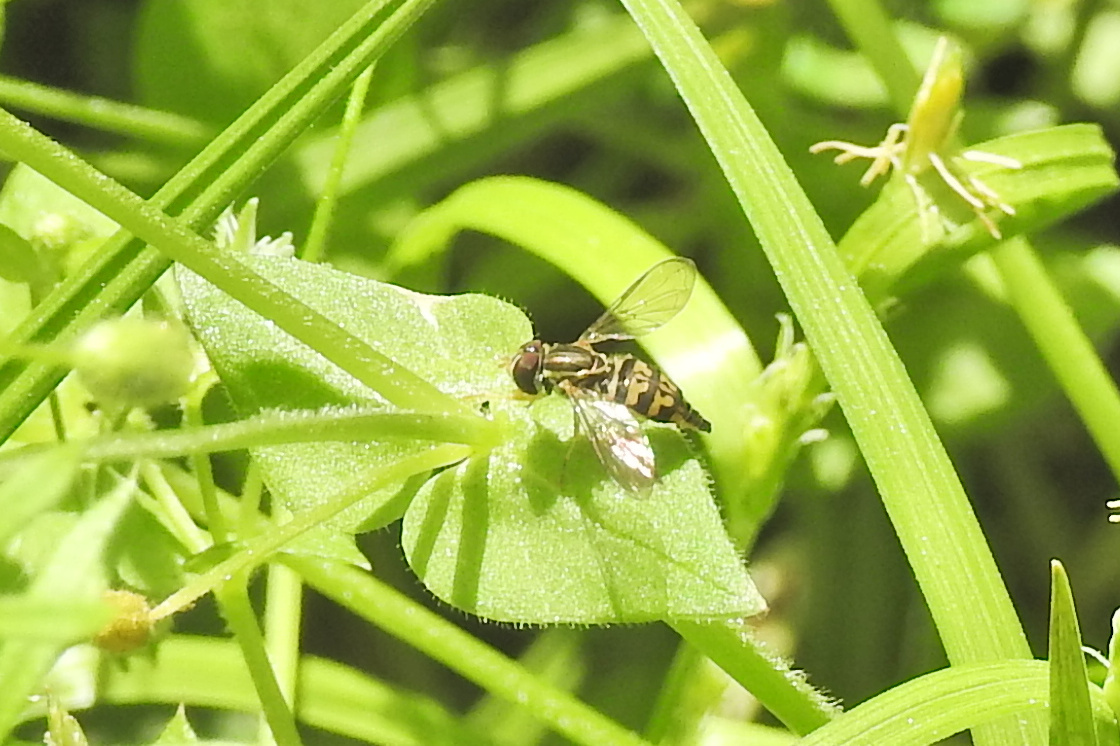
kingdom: Animalia
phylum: Arthropoda
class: Insecta
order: Diptera
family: Syrphidae
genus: Toxomerus
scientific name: Toxomerus geminatus
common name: Eastern calligrapher
